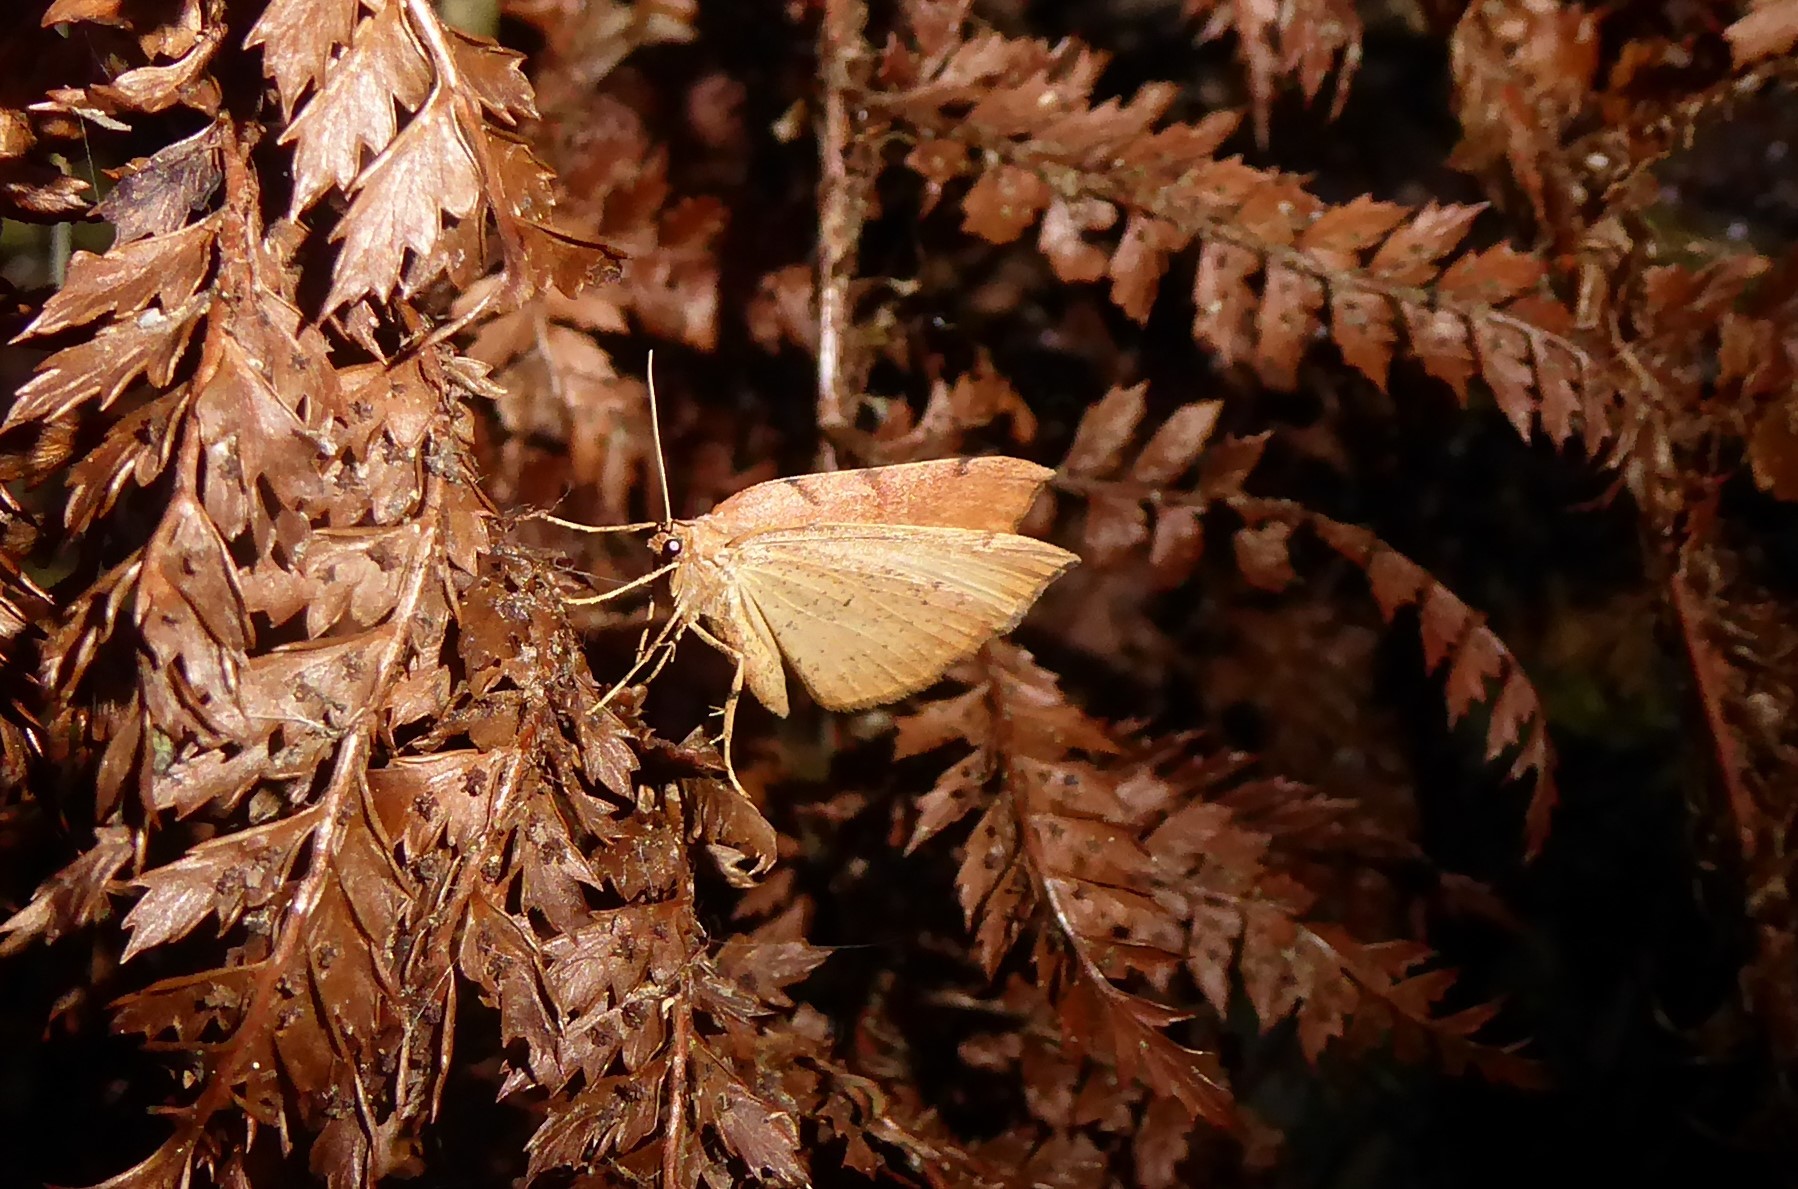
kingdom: Animalia
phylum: Arthropoda
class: Insecta
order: Lepidoptera
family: Geometridae
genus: Sestra
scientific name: Sestra humeraria
